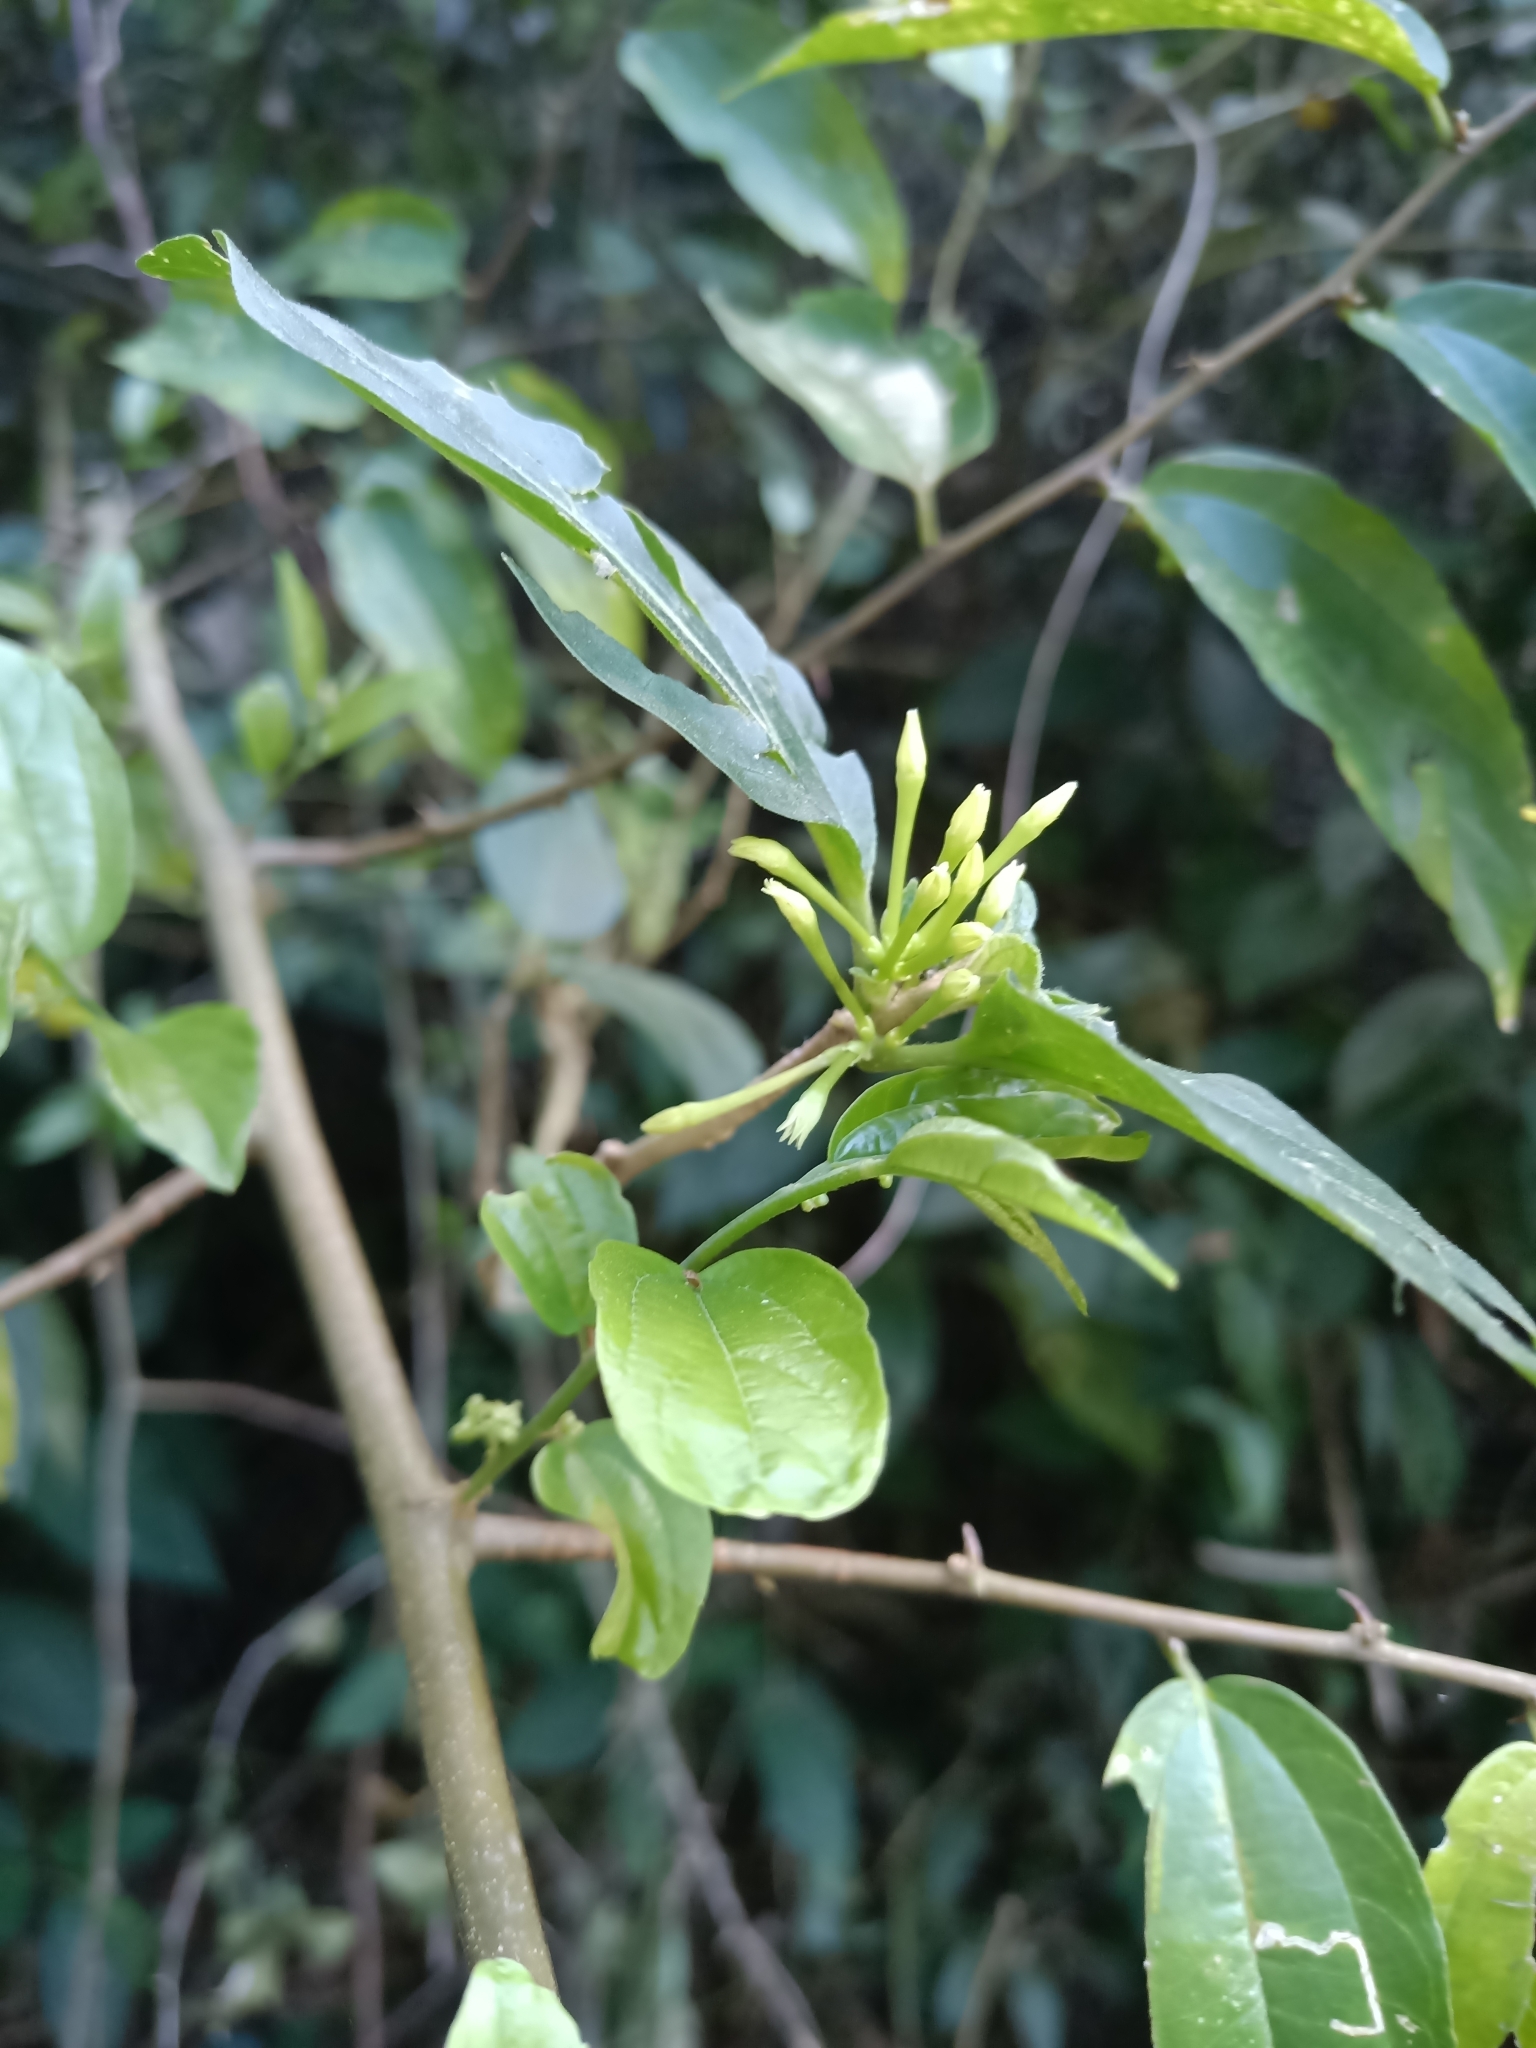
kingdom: Plantae
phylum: Tracheophyta
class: Magnoliopsida
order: Solanales
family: Solanaceae
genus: Cestrum
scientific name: Cestrum latifolium
